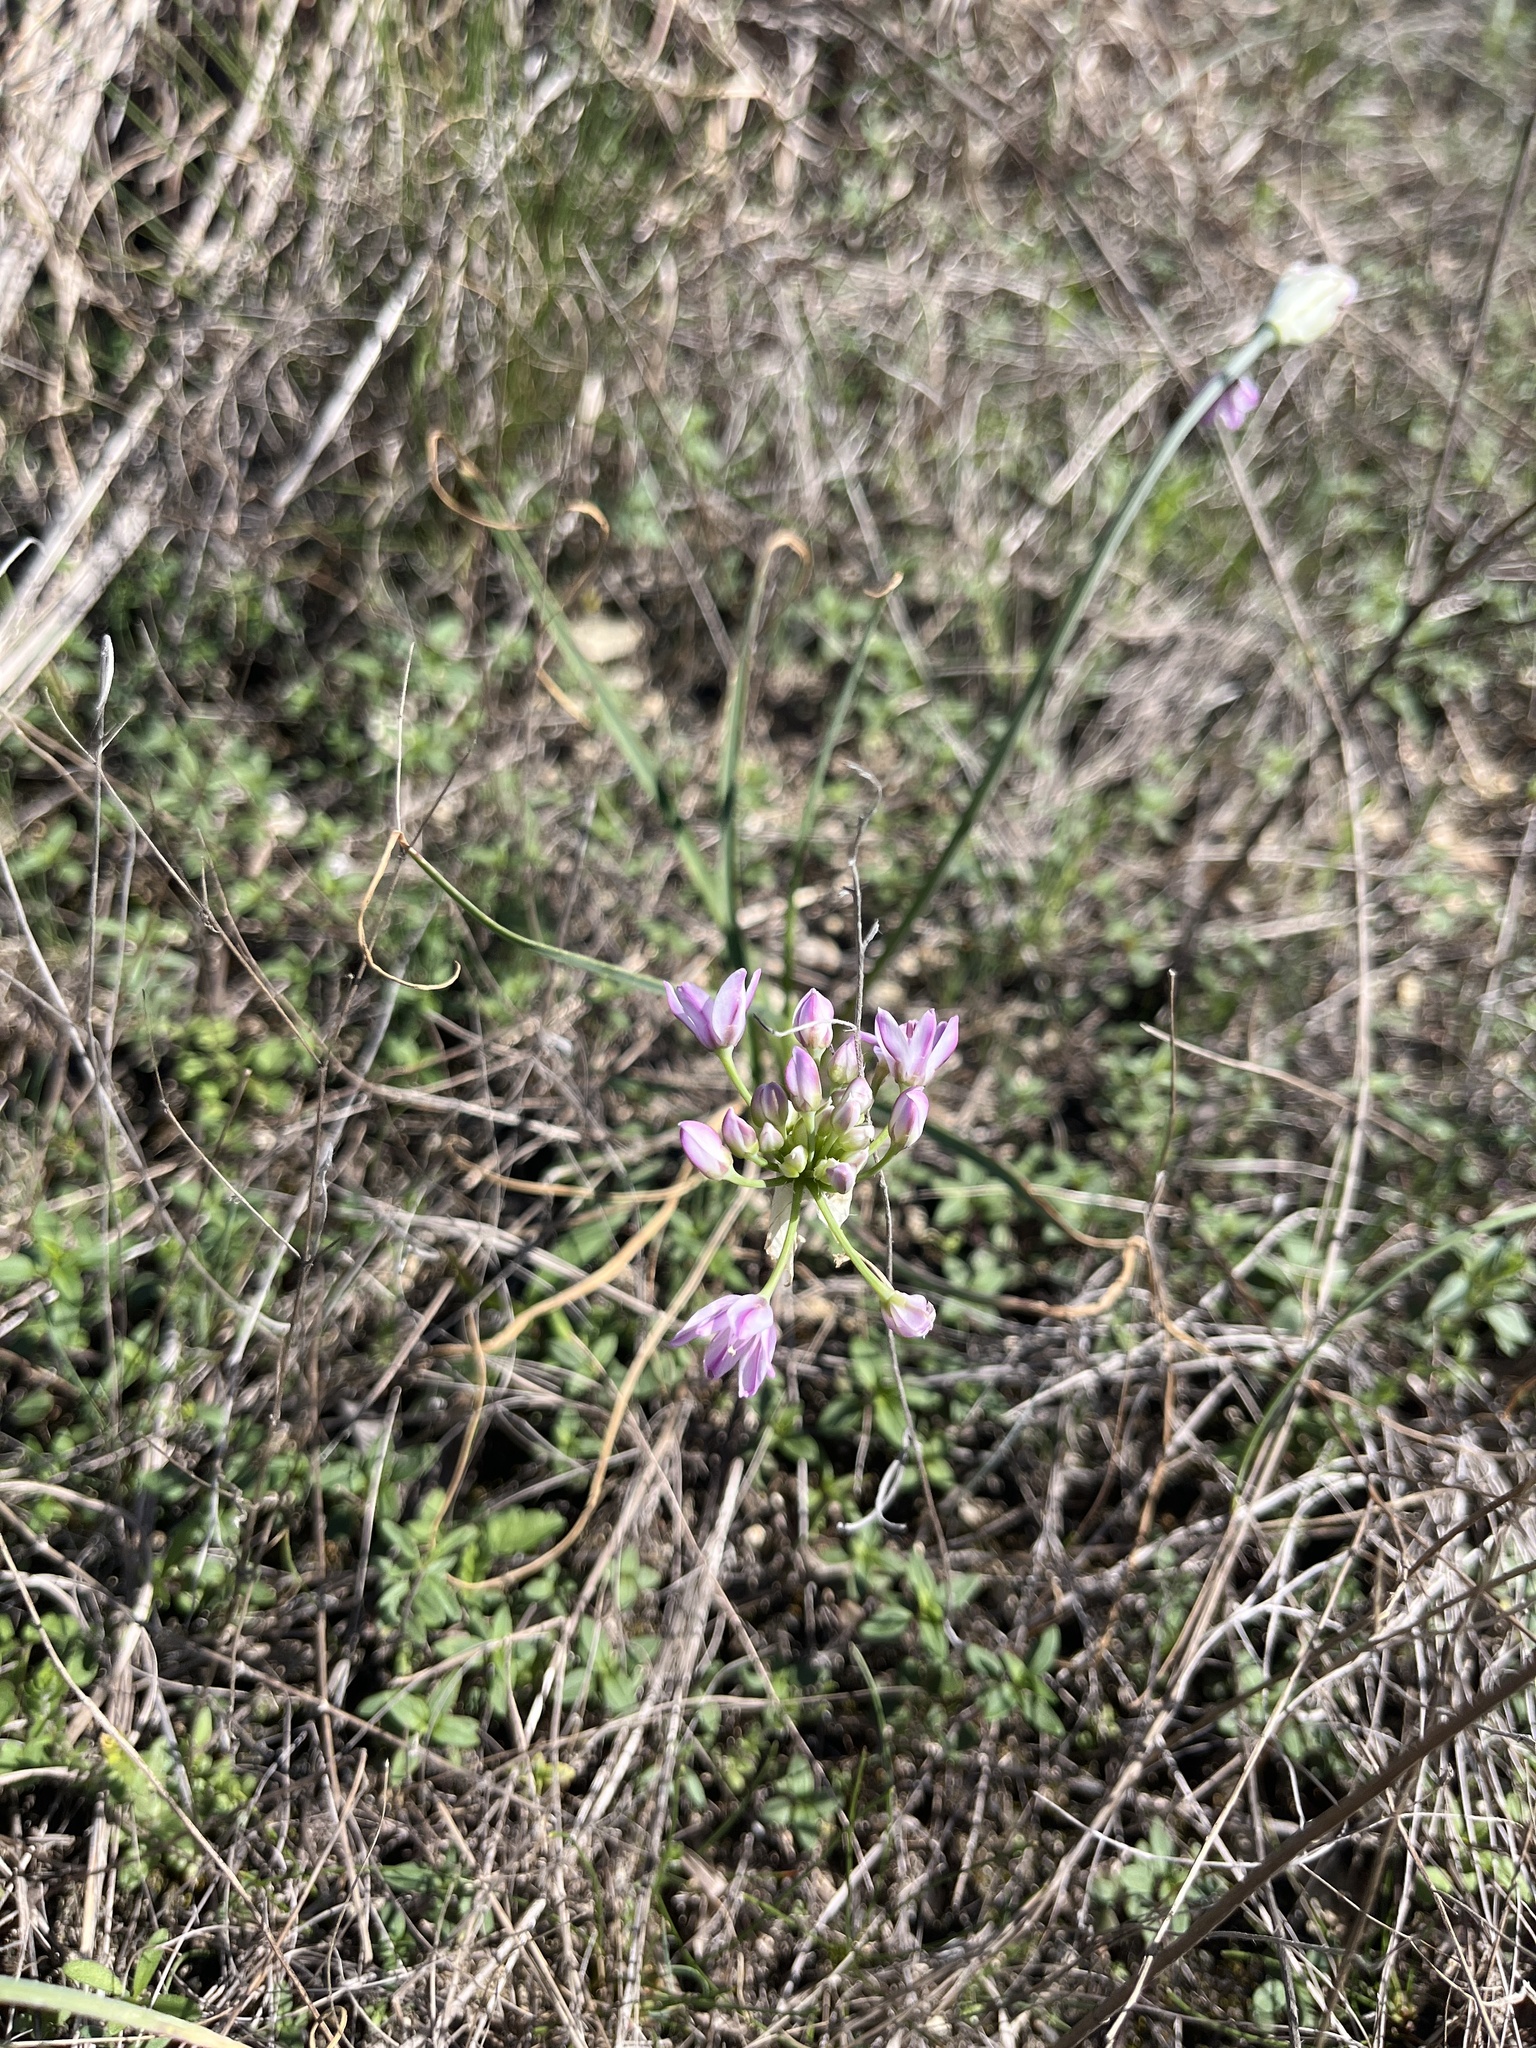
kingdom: Plantae
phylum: Tracheophyta
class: Liliopsida
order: Asparagales
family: Amaryllidaceae
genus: Allium
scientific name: Allium drummondii
